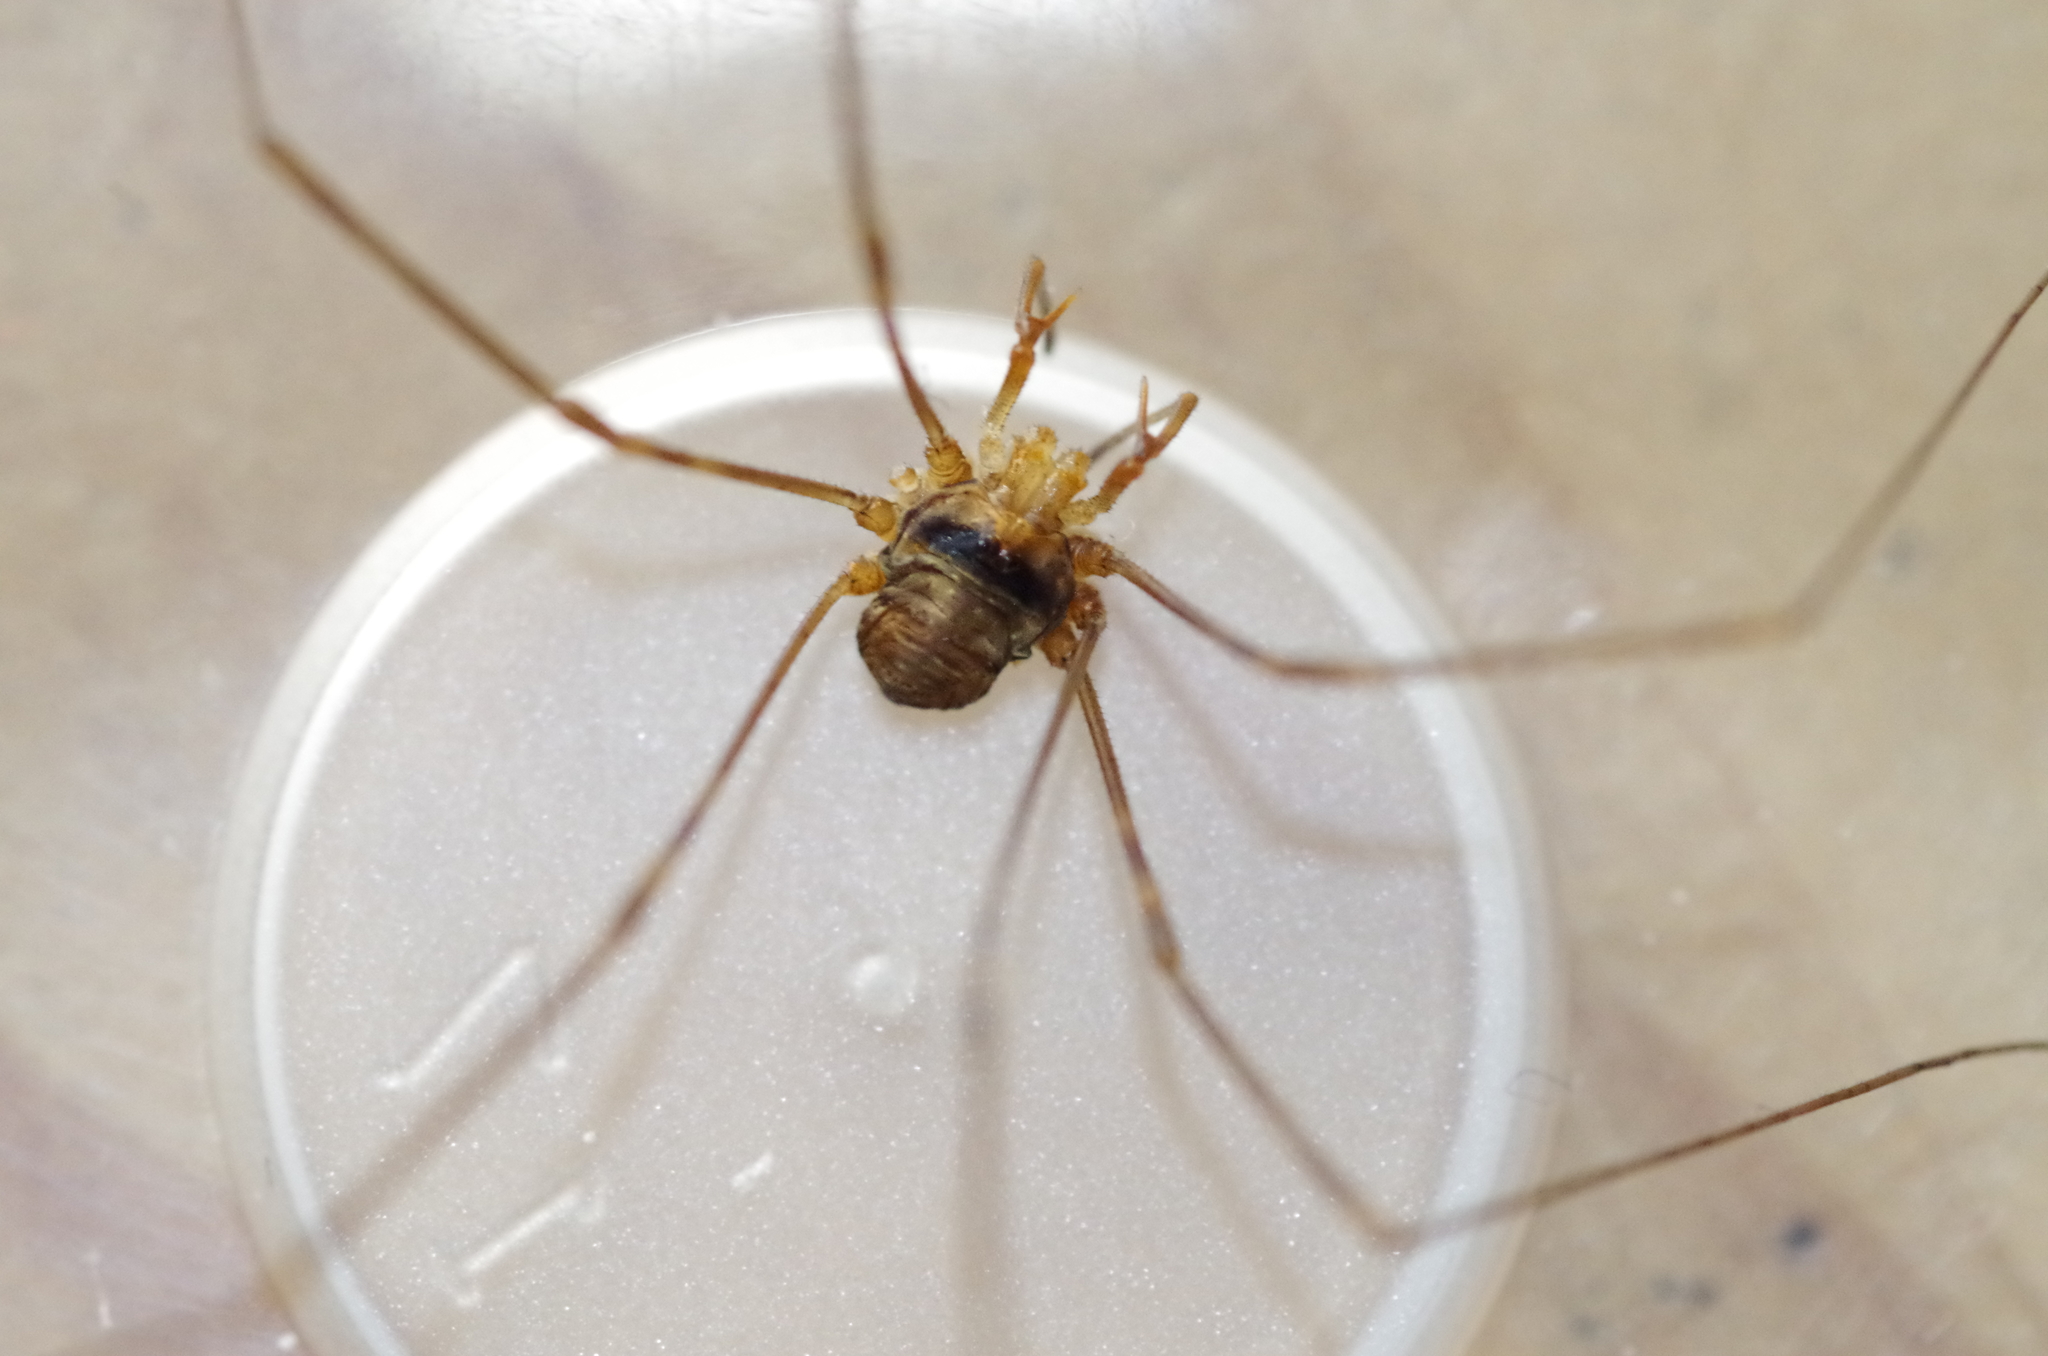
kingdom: Animalia
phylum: Arthropoda
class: Arachnida
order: Opiliones
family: Phalangiidae
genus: Dicranopalpus
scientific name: Dicranopalpus ramosus
